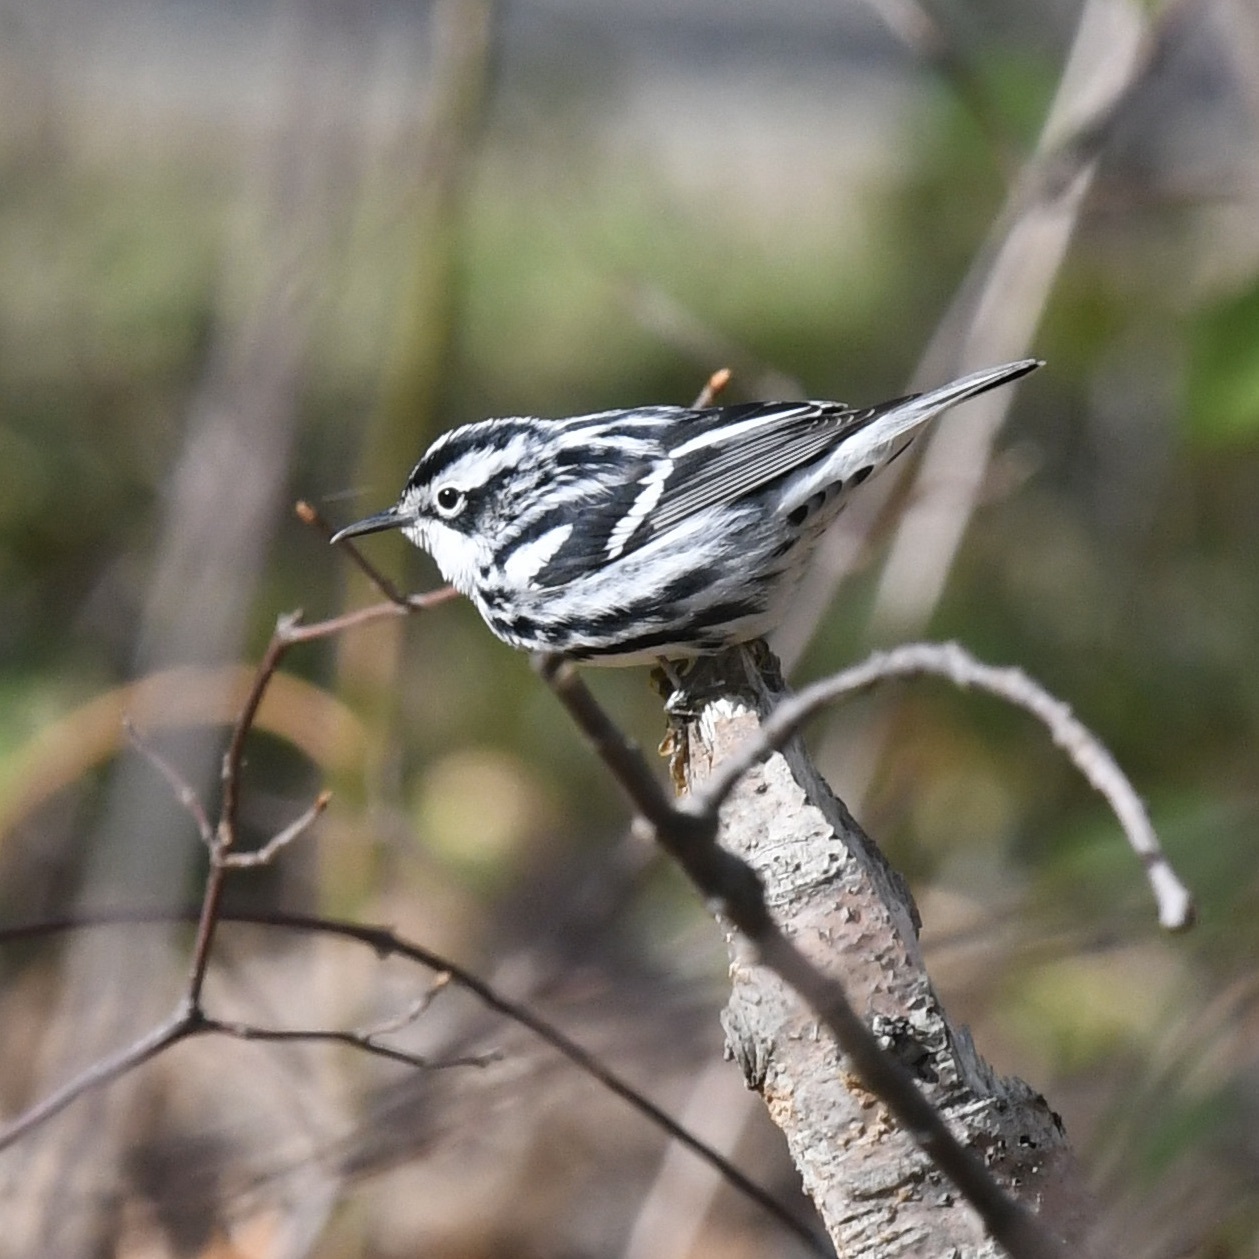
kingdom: Animalia
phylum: Chordata
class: Aves
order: Passeriformes
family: Parulidae
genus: Mniotilta
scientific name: Mniotilta varia
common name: Black-and-white warbler
